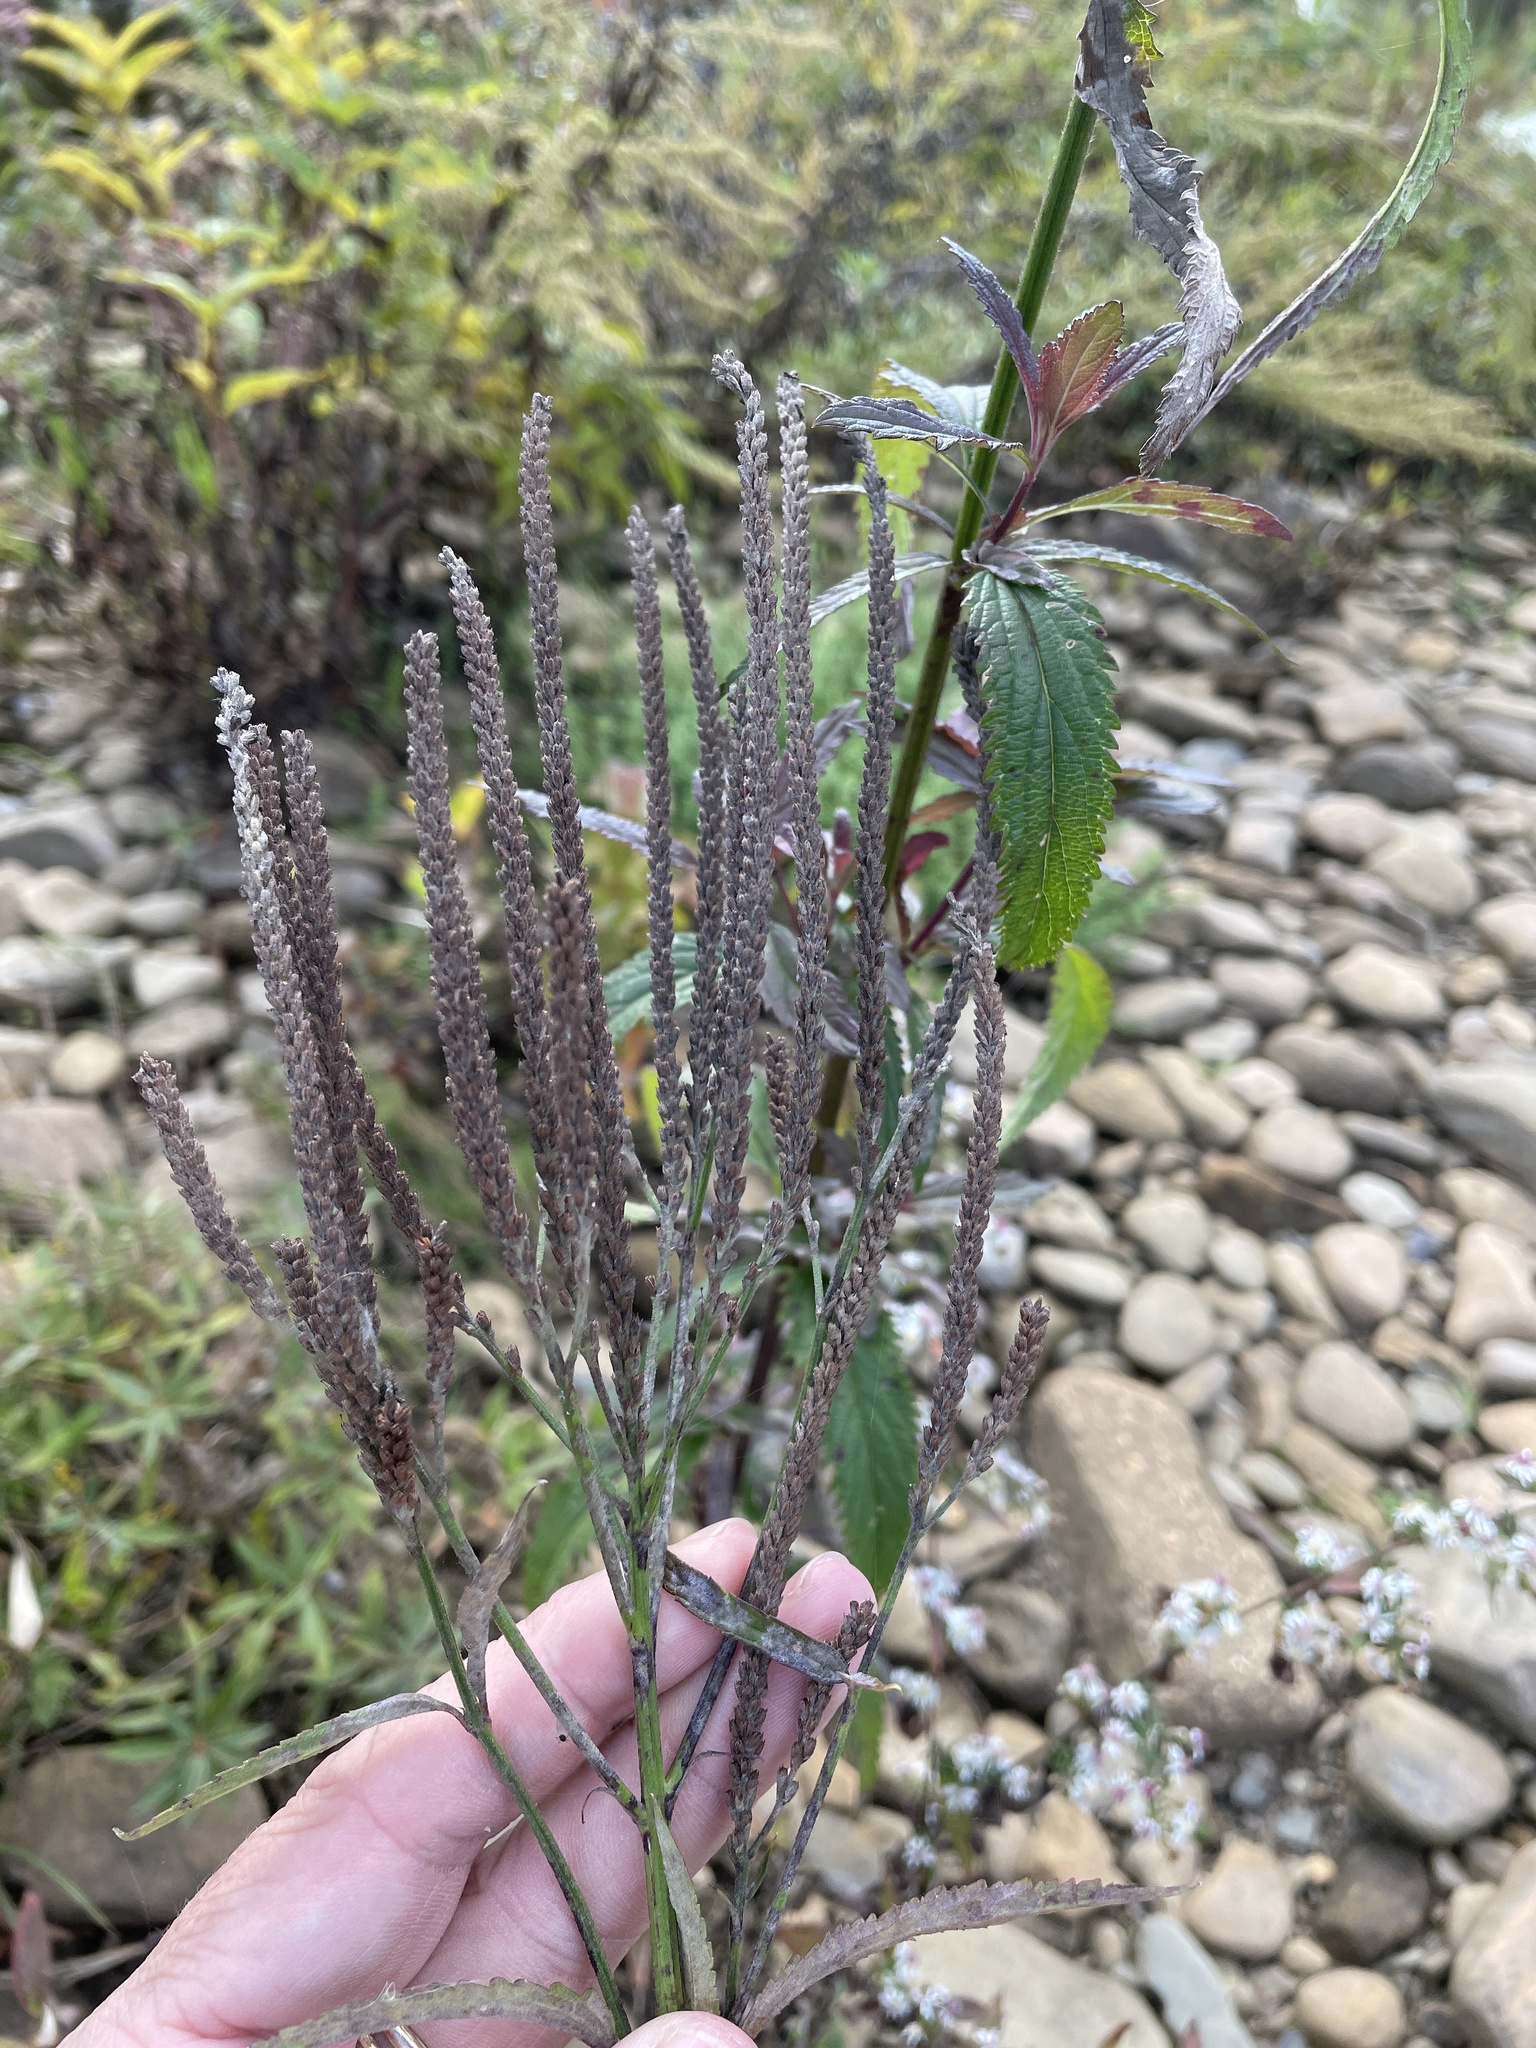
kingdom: Plantae
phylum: Tracheophyta
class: Magnoliopsida
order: Lamiales
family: Verbenaceae
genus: Verbena
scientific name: Verbena hastata
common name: American blue vervain
